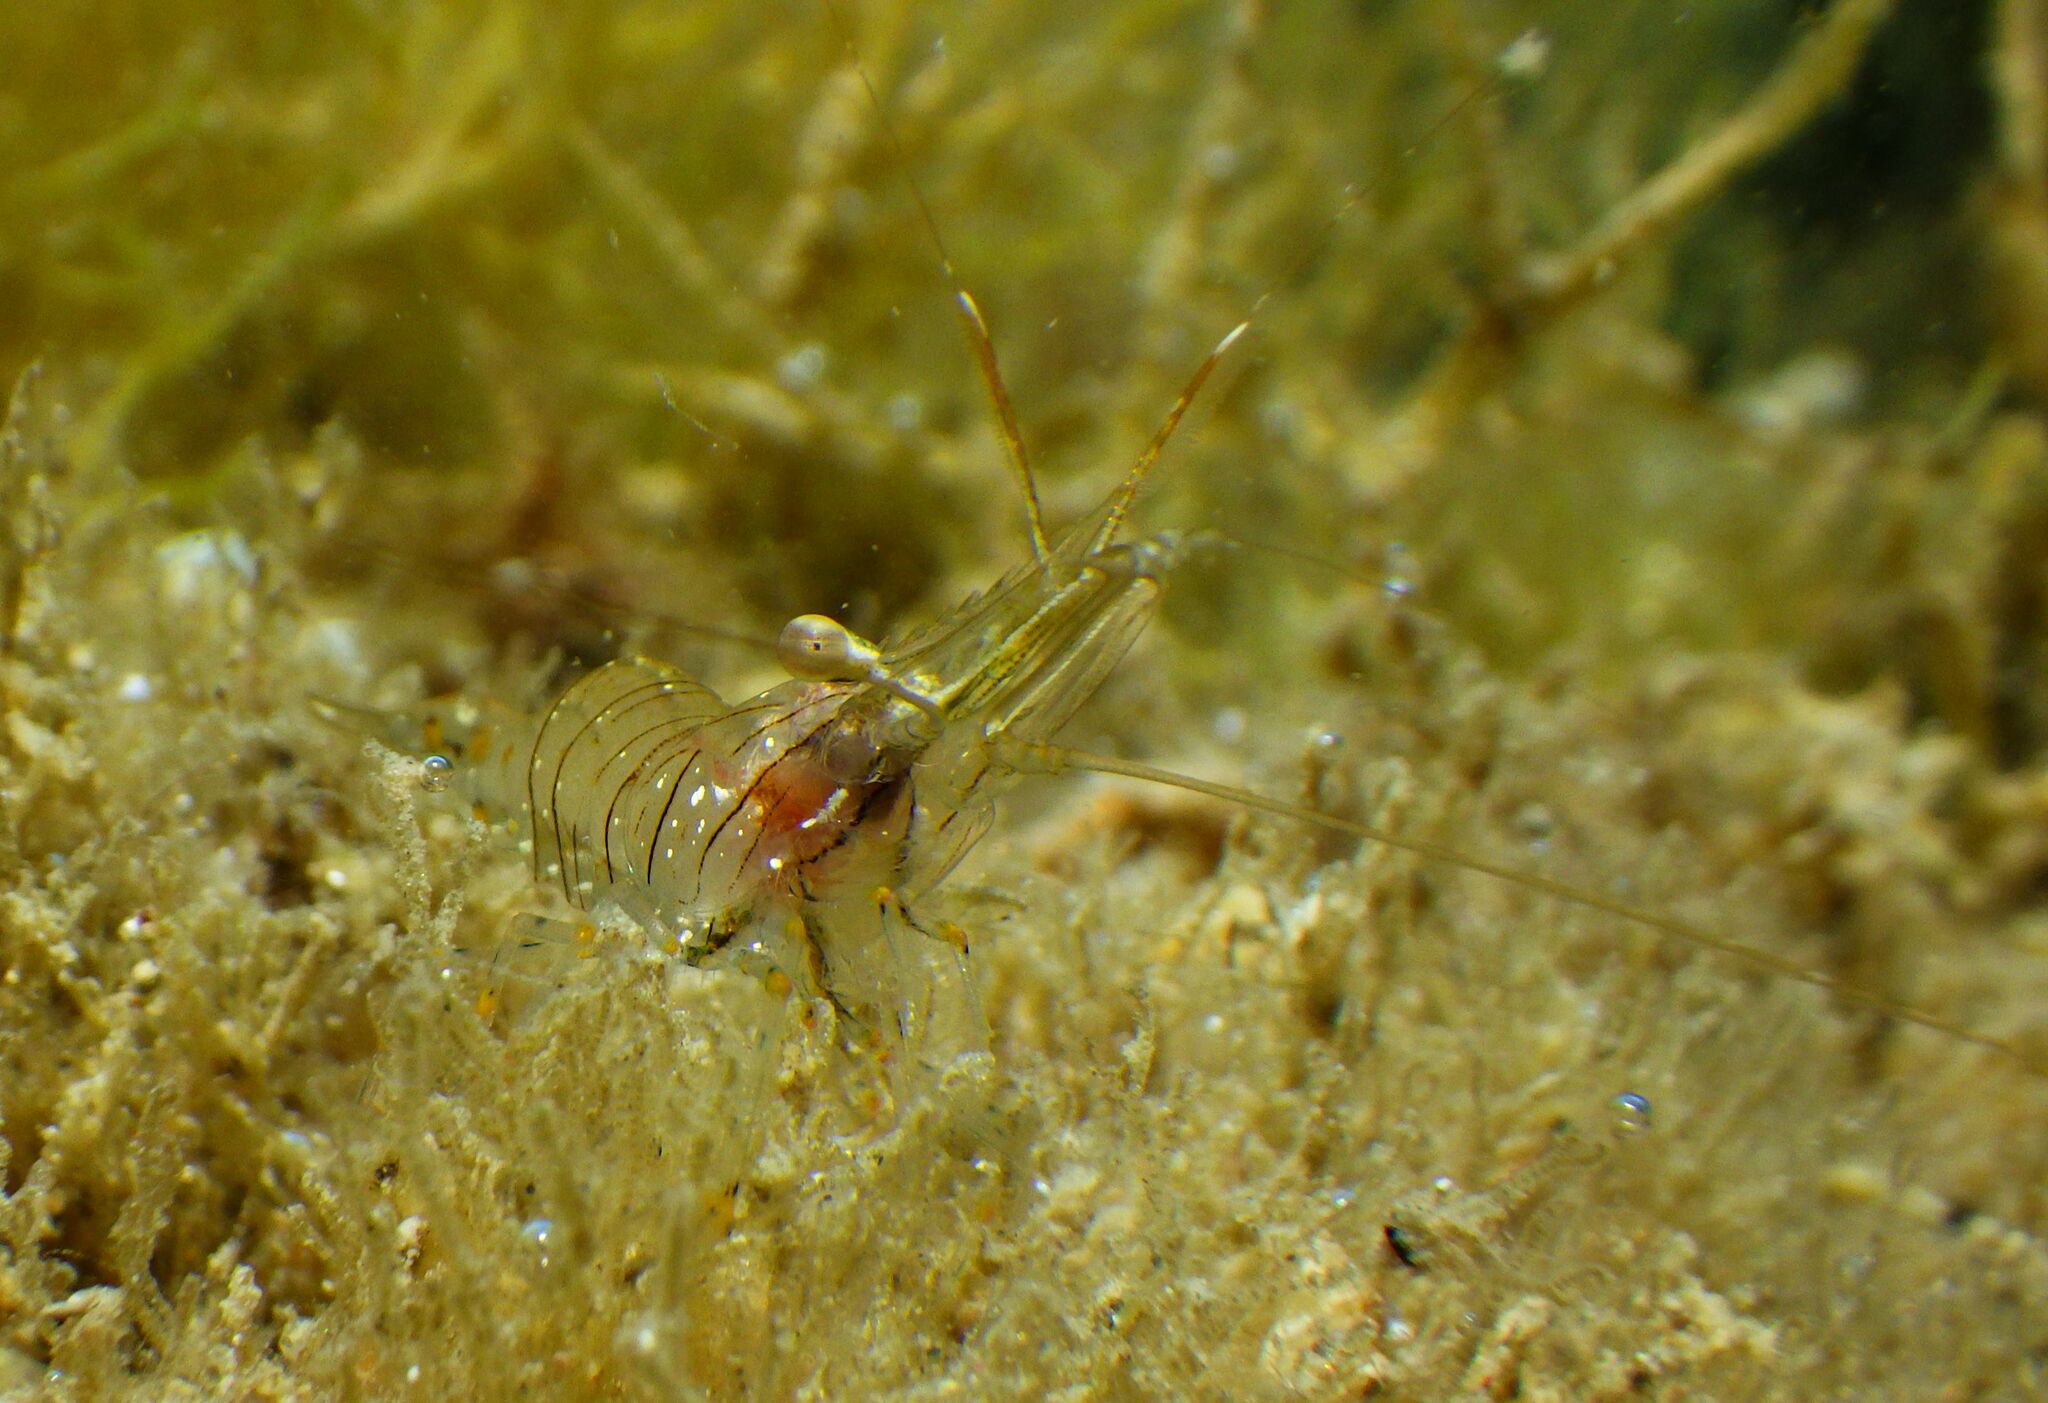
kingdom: Animalia
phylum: Arthropoda
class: Malacostraca
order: Decapoda
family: Palaemonidae
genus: Palaemon
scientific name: Palaemon elegans
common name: Grass prawm
